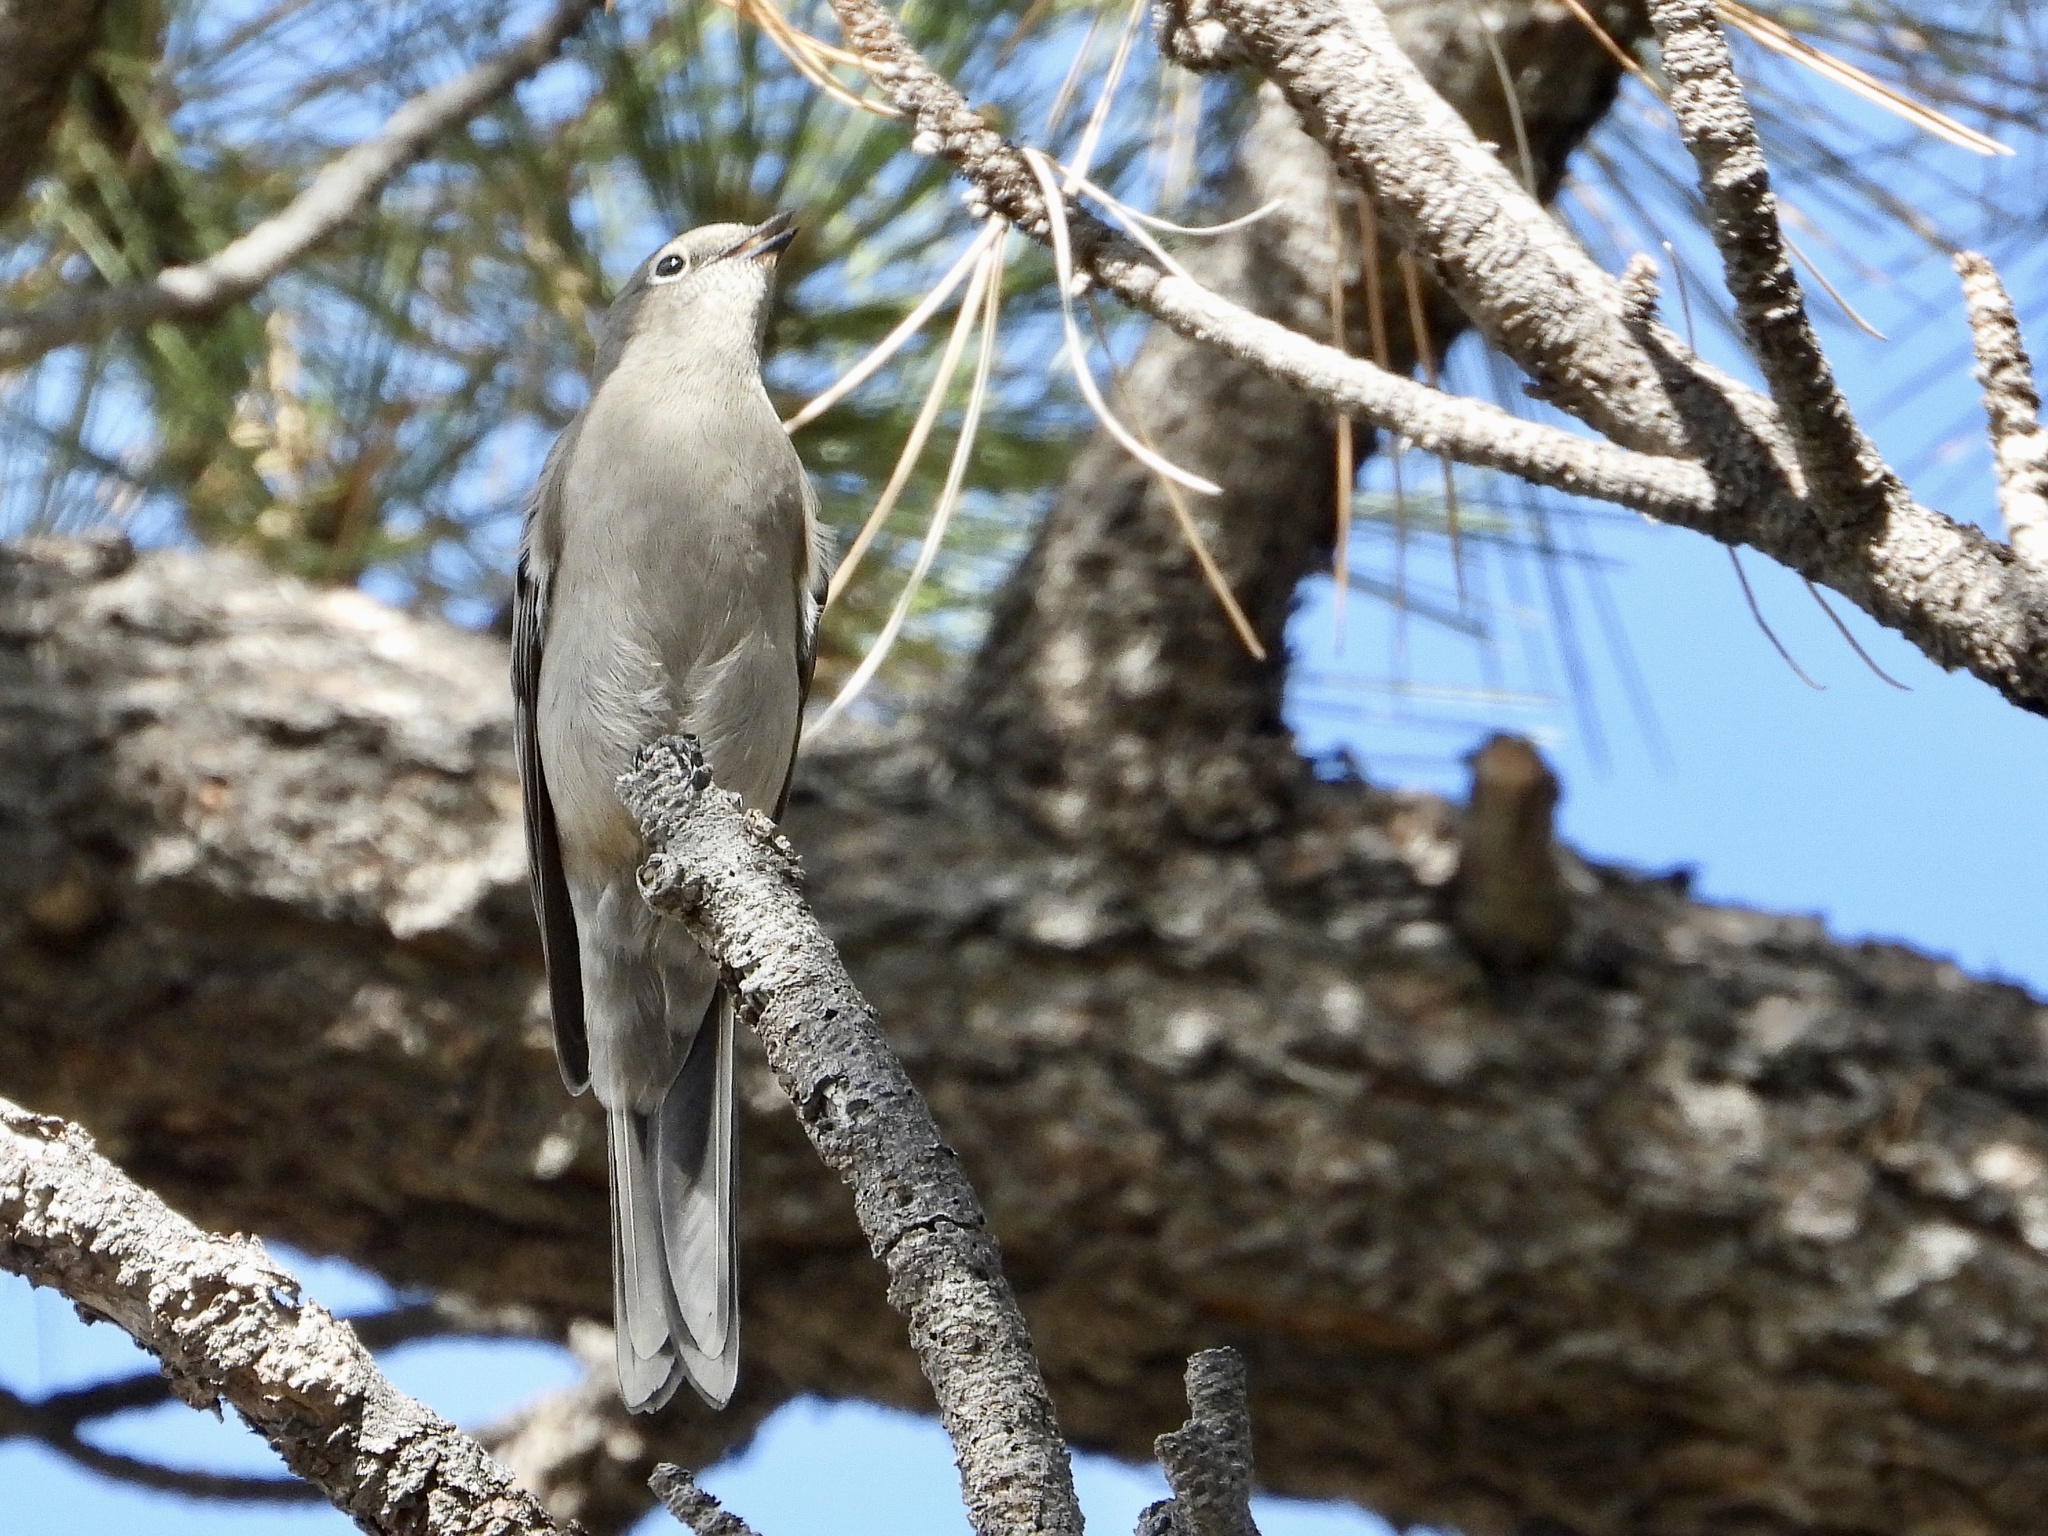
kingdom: Animalia
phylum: Chordata
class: Aves
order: Passeriformes
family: Turdidae
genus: Myadestes
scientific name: Myadestes townsendi
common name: Townsend's solitaire
